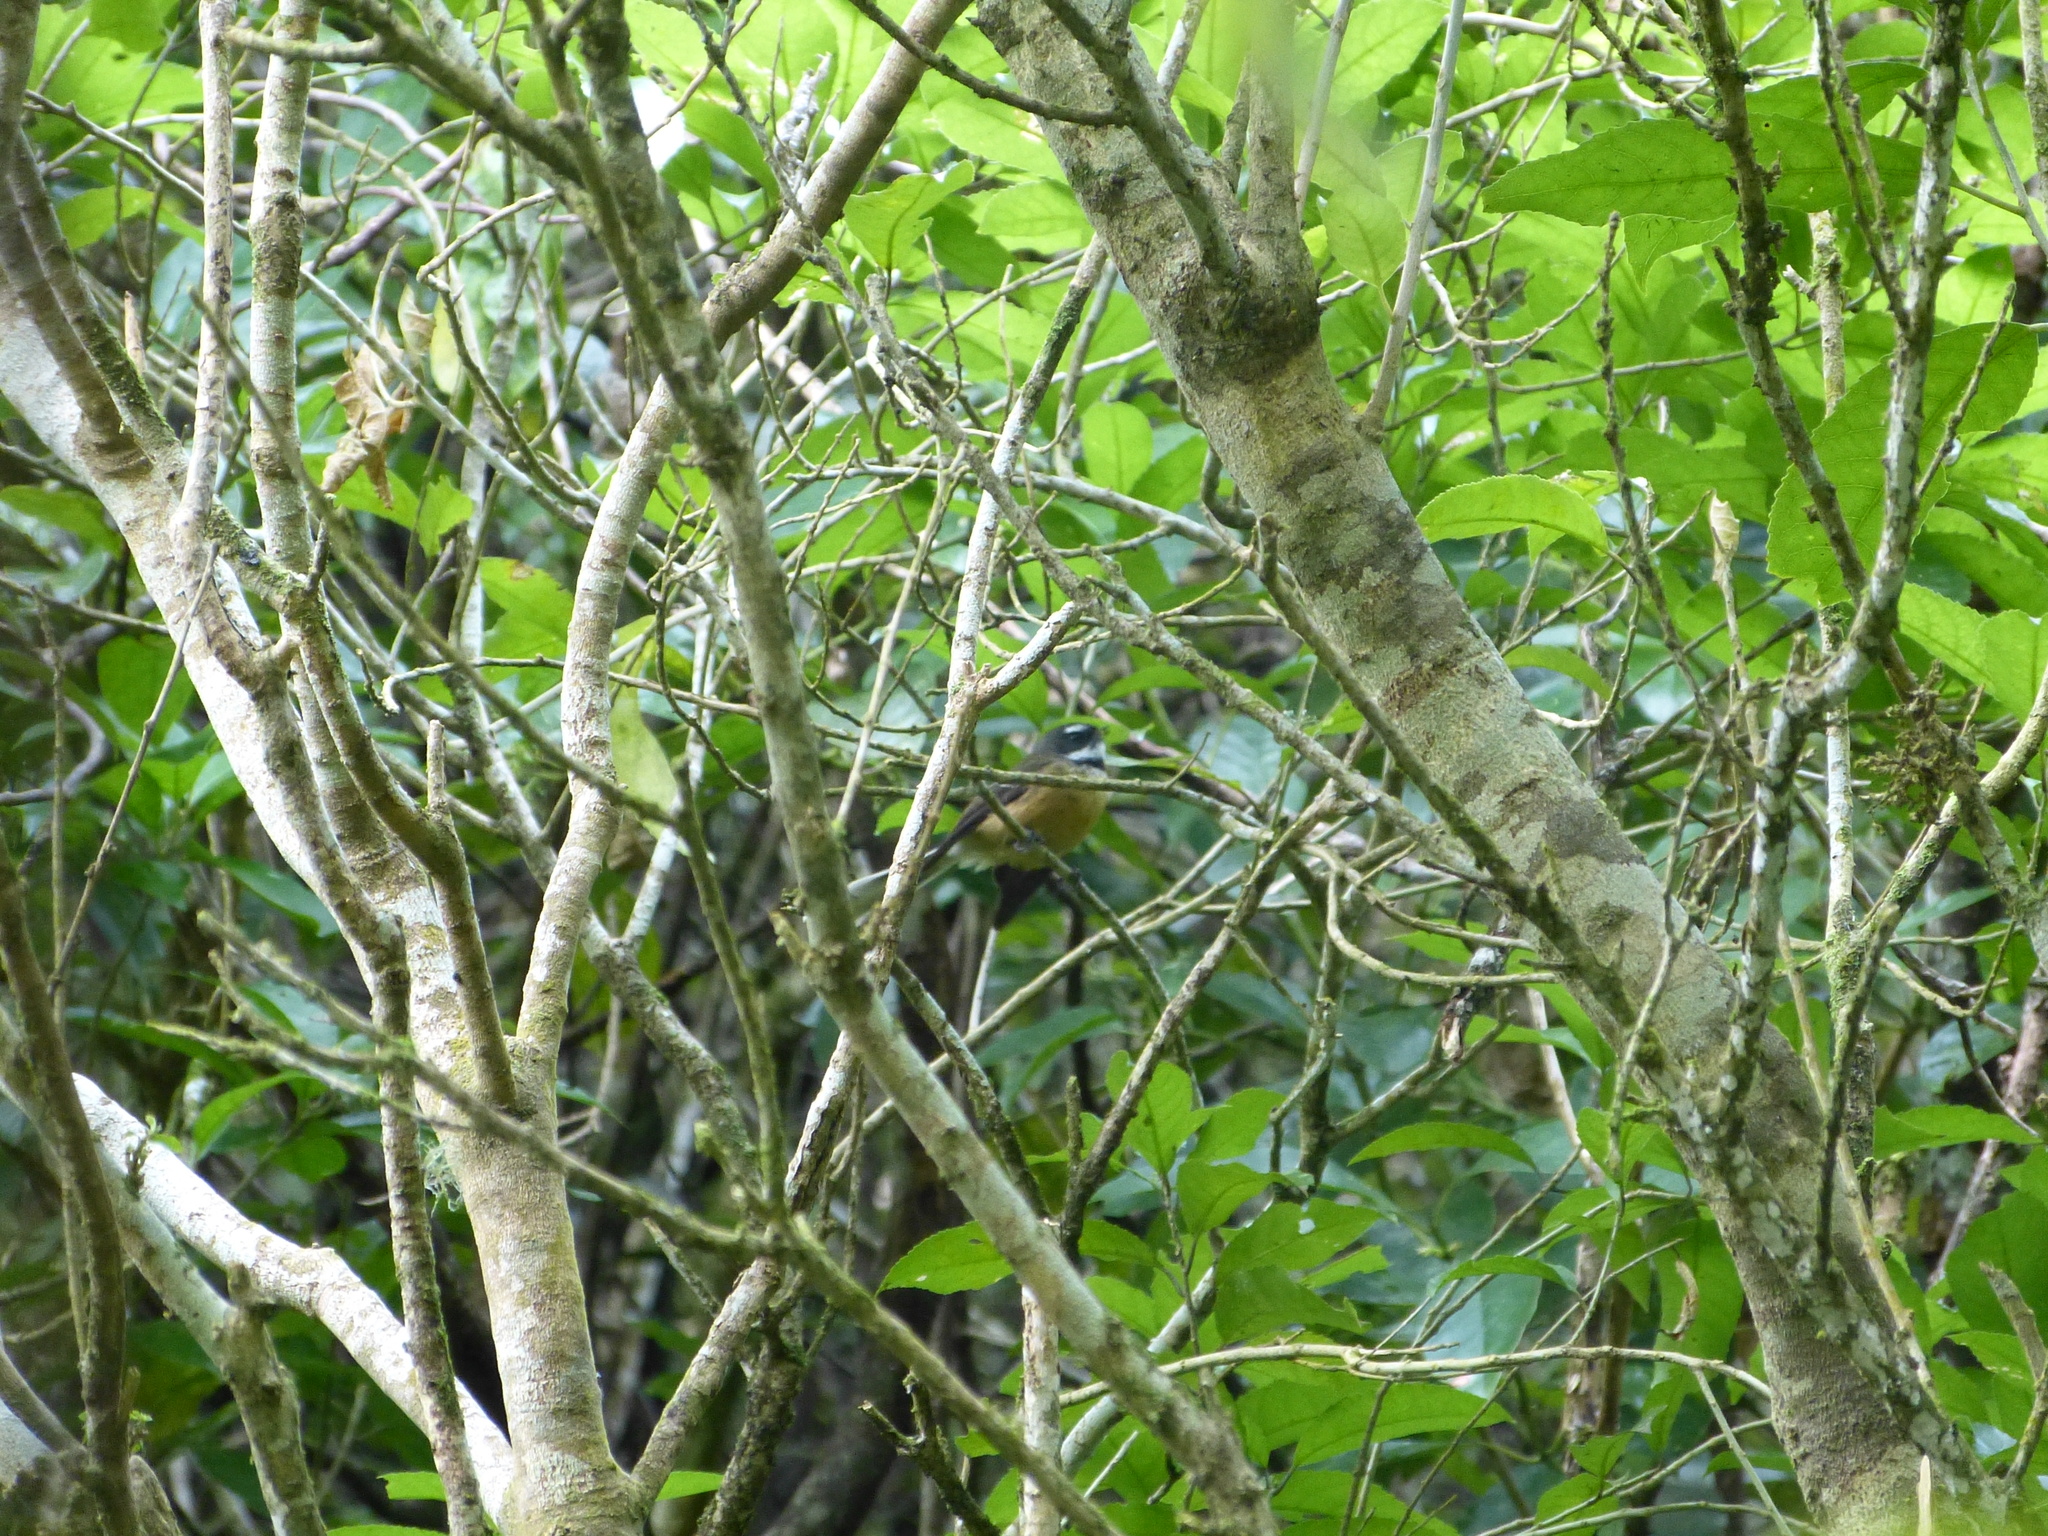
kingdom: Animalia
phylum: Chordata
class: Aves
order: Passeriformes
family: Rhipiduridae
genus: Rhipidura
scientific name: Rhipidura fuliginosa
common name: New zealand fantail
